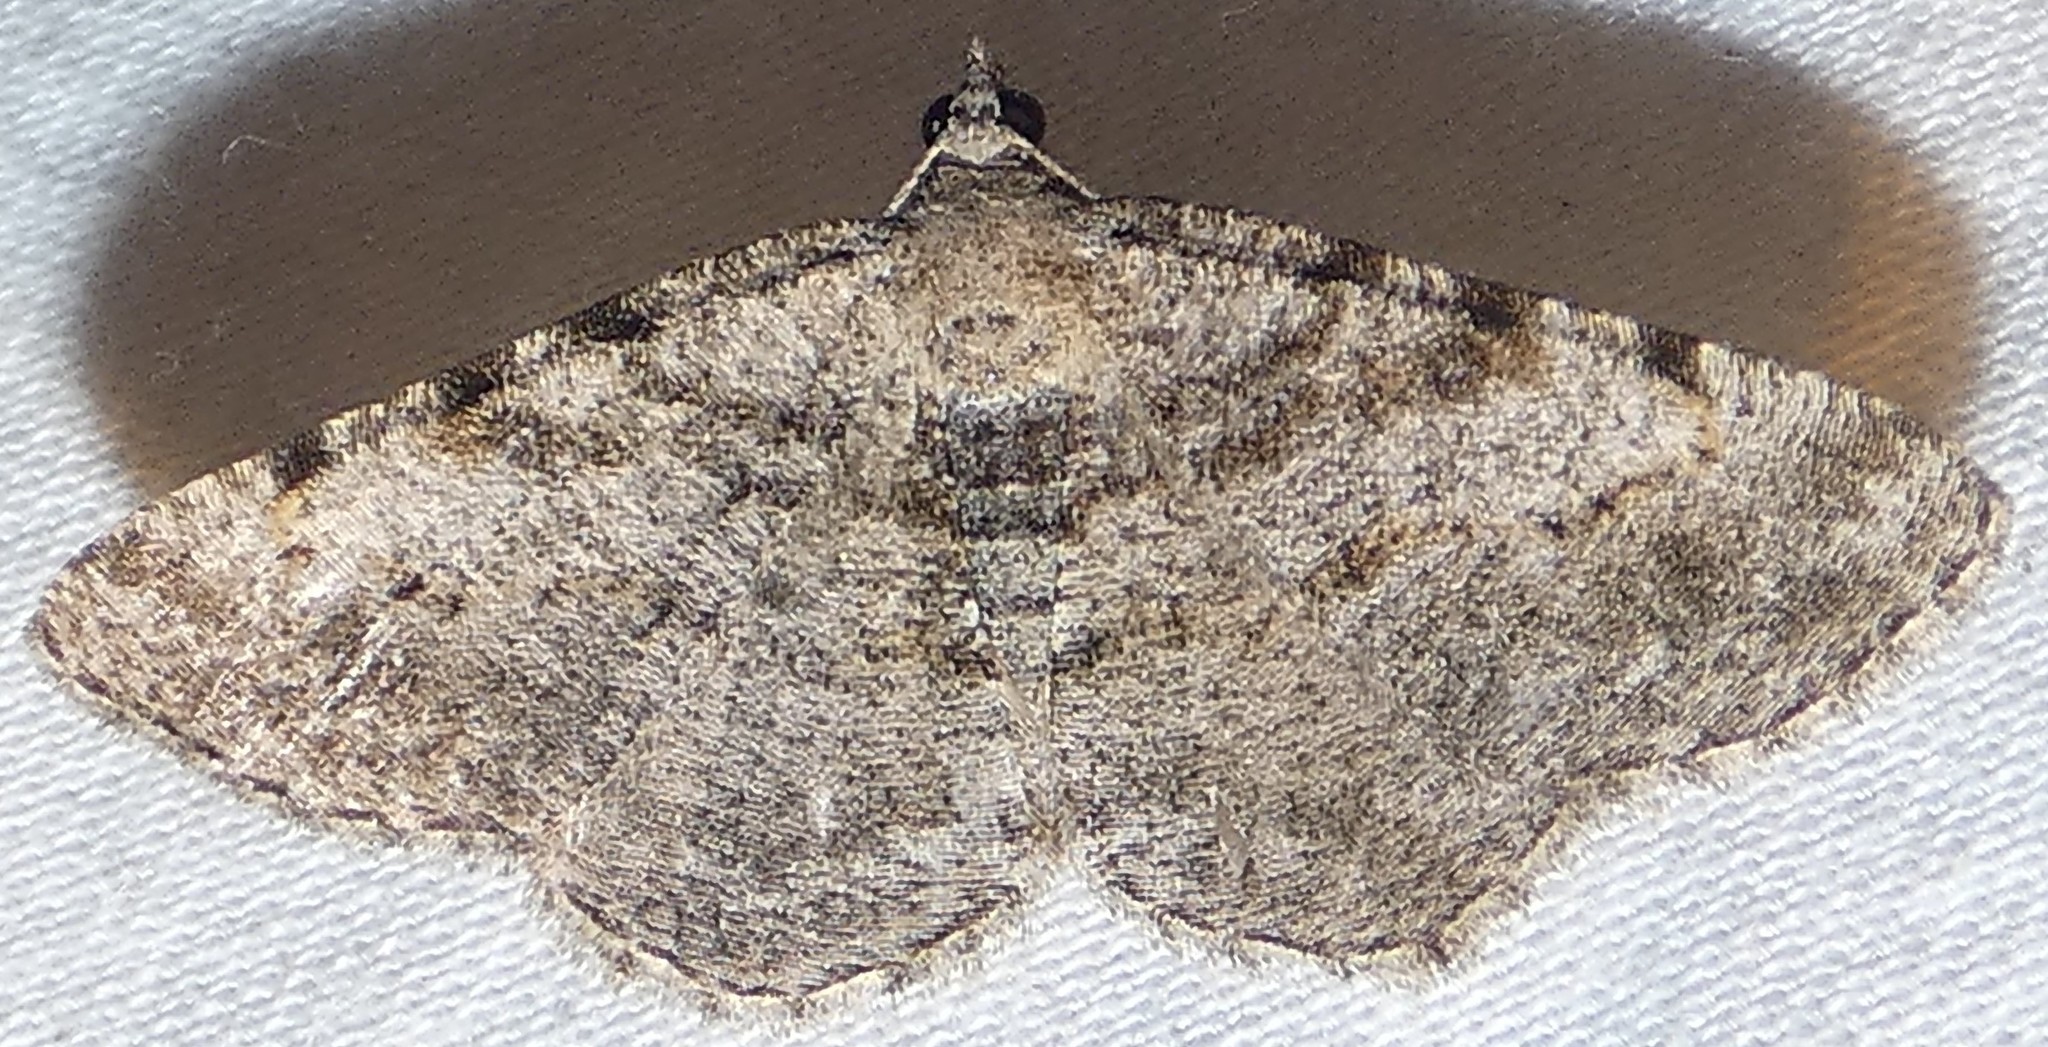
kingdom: Animalia
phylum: Arthropoda
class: Insecta
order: Lepidoptera
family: Geometridae
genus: Digrammia
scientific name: Digrammia gnophosaria
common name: Hollow-spotted angle
